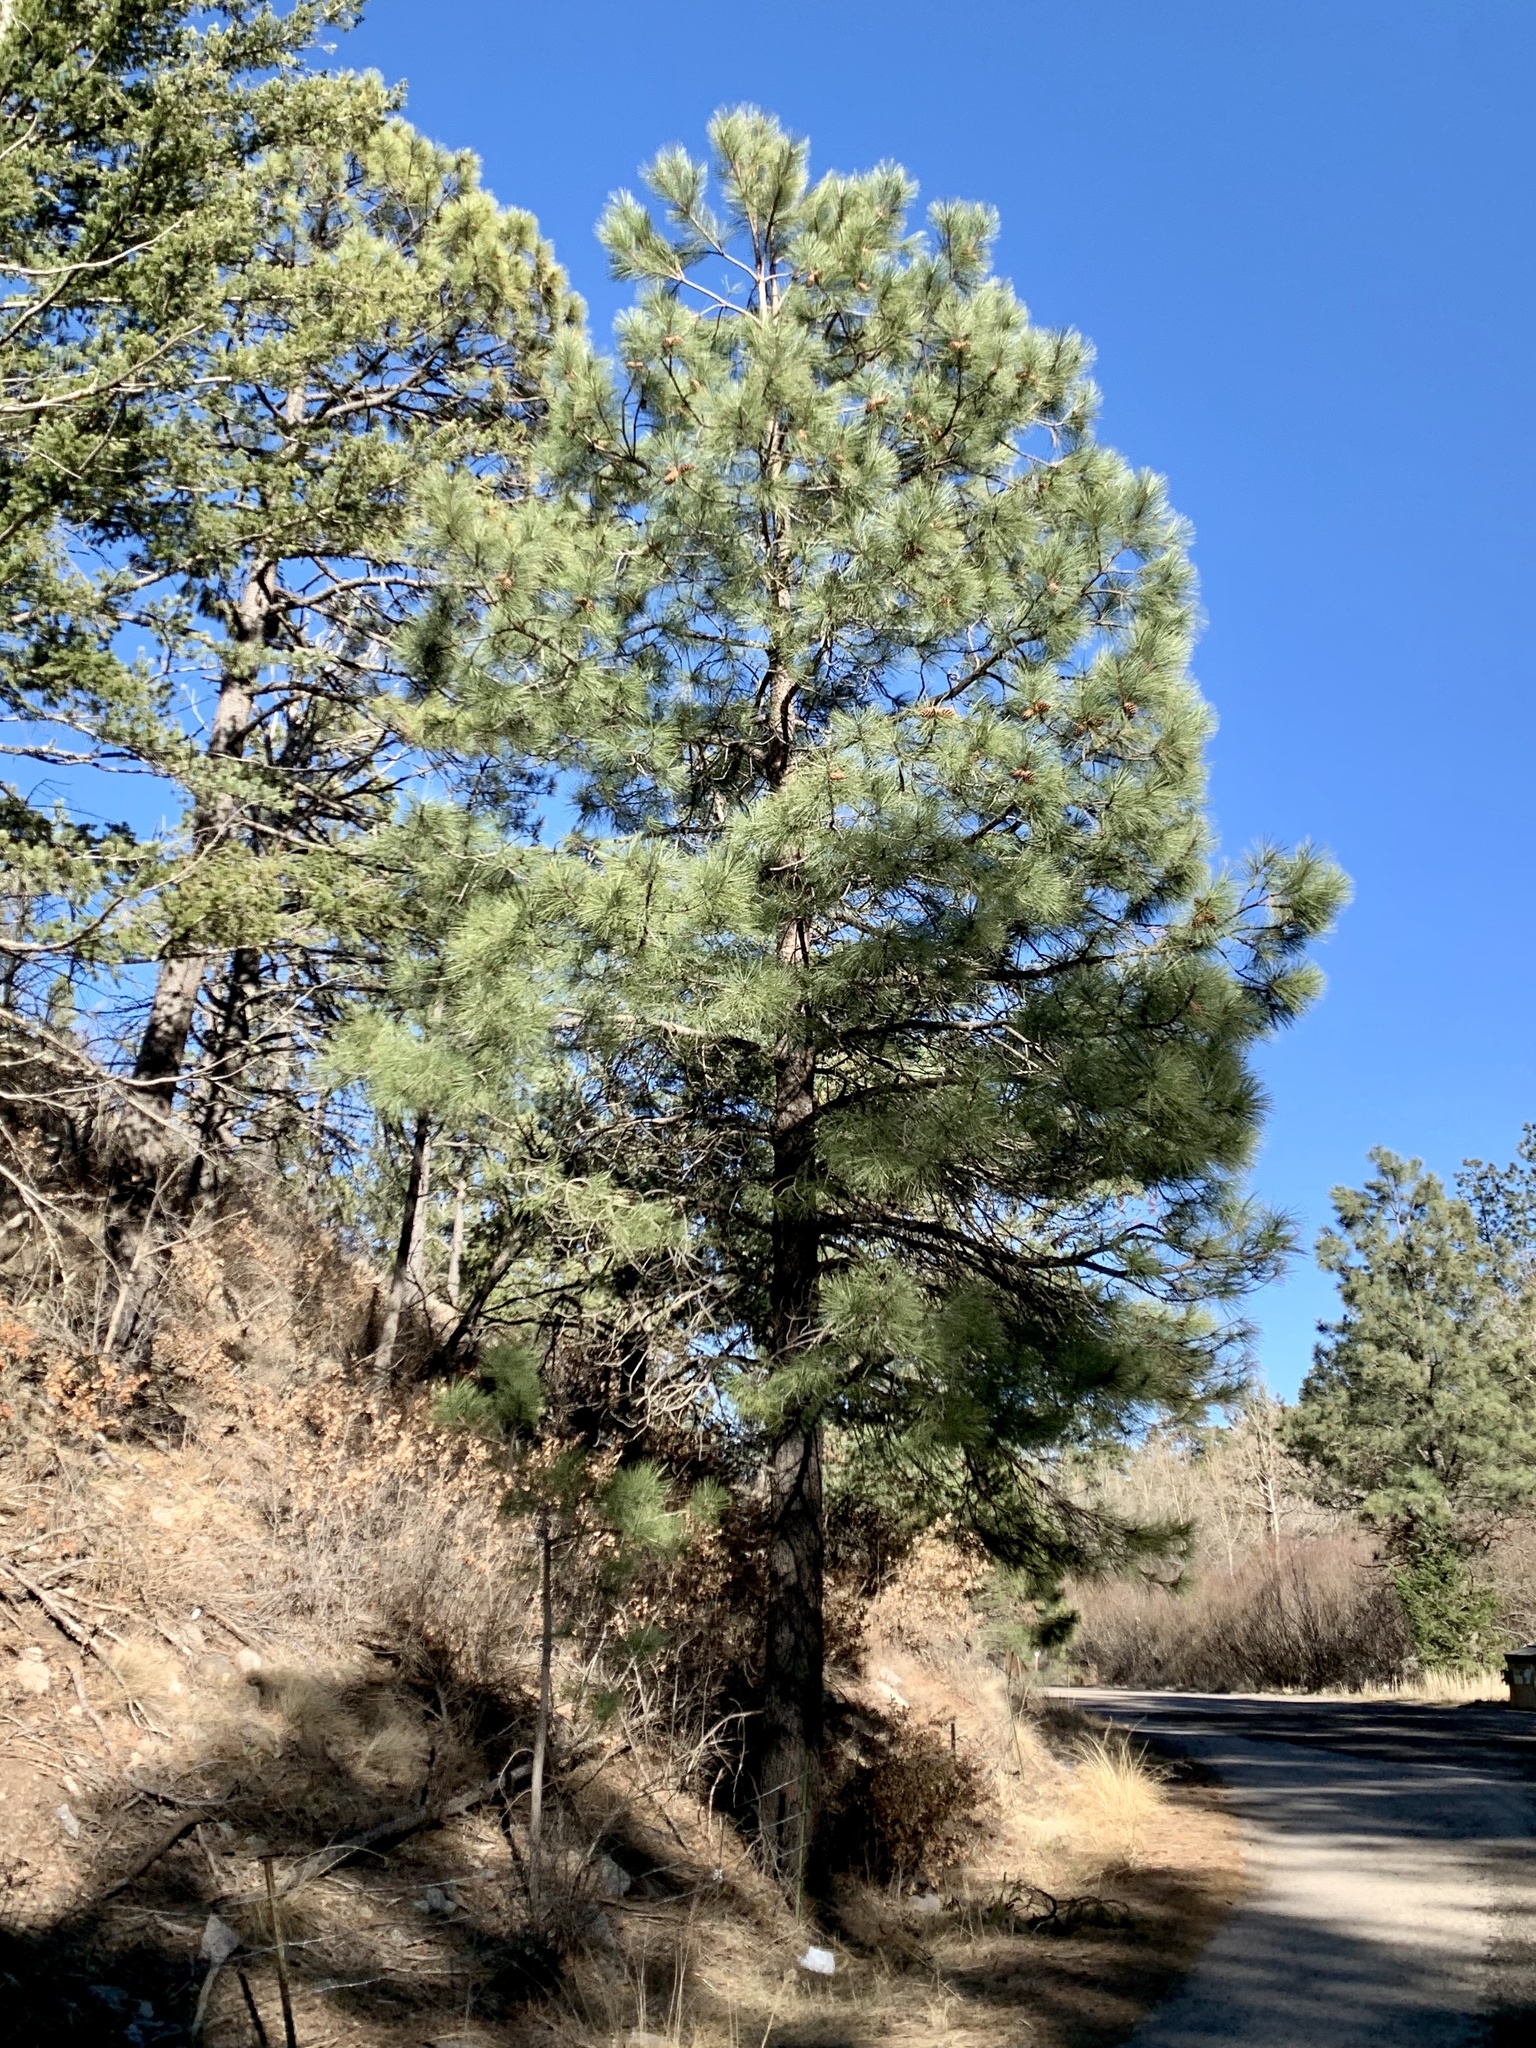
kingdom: Plantae
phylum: Tracheophyta
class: Pinopsida
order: Pinales
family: Pinaceae
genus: Pinus
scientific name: Pinus ponderosa
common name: Western yellow-pine
